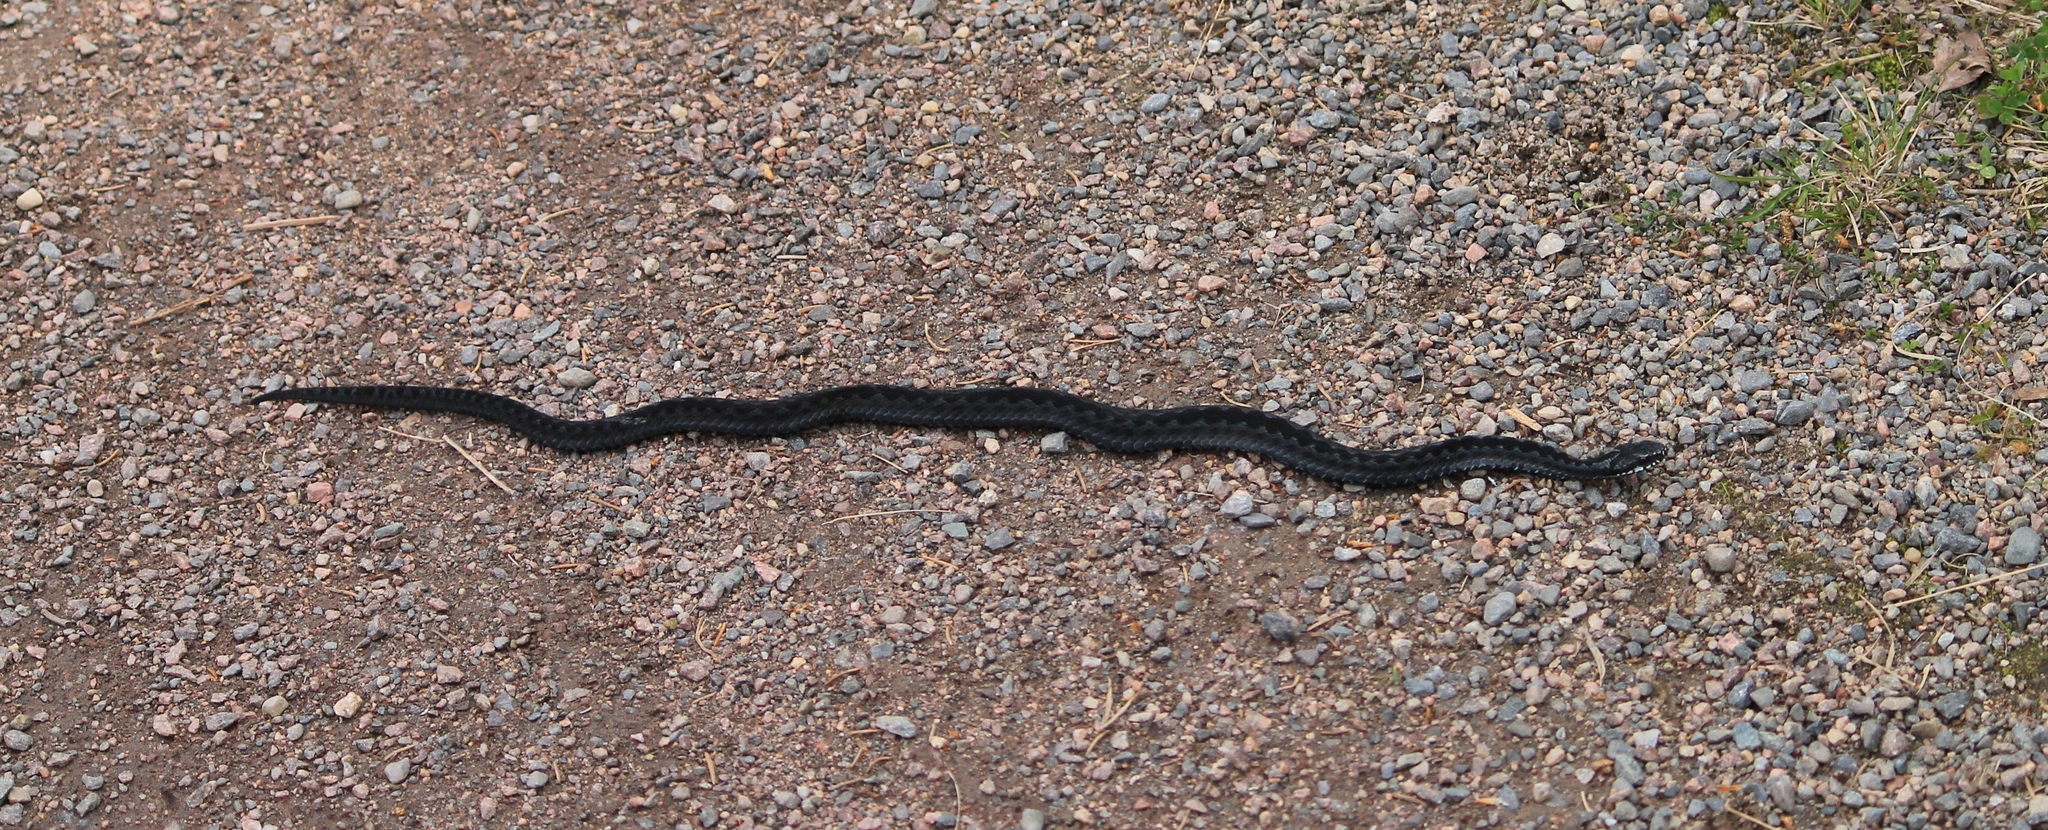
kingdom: Animalia
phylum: Chordata
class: Squamata
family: Viperidae
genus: Vipera
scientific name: Vipera berus
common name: Adder
